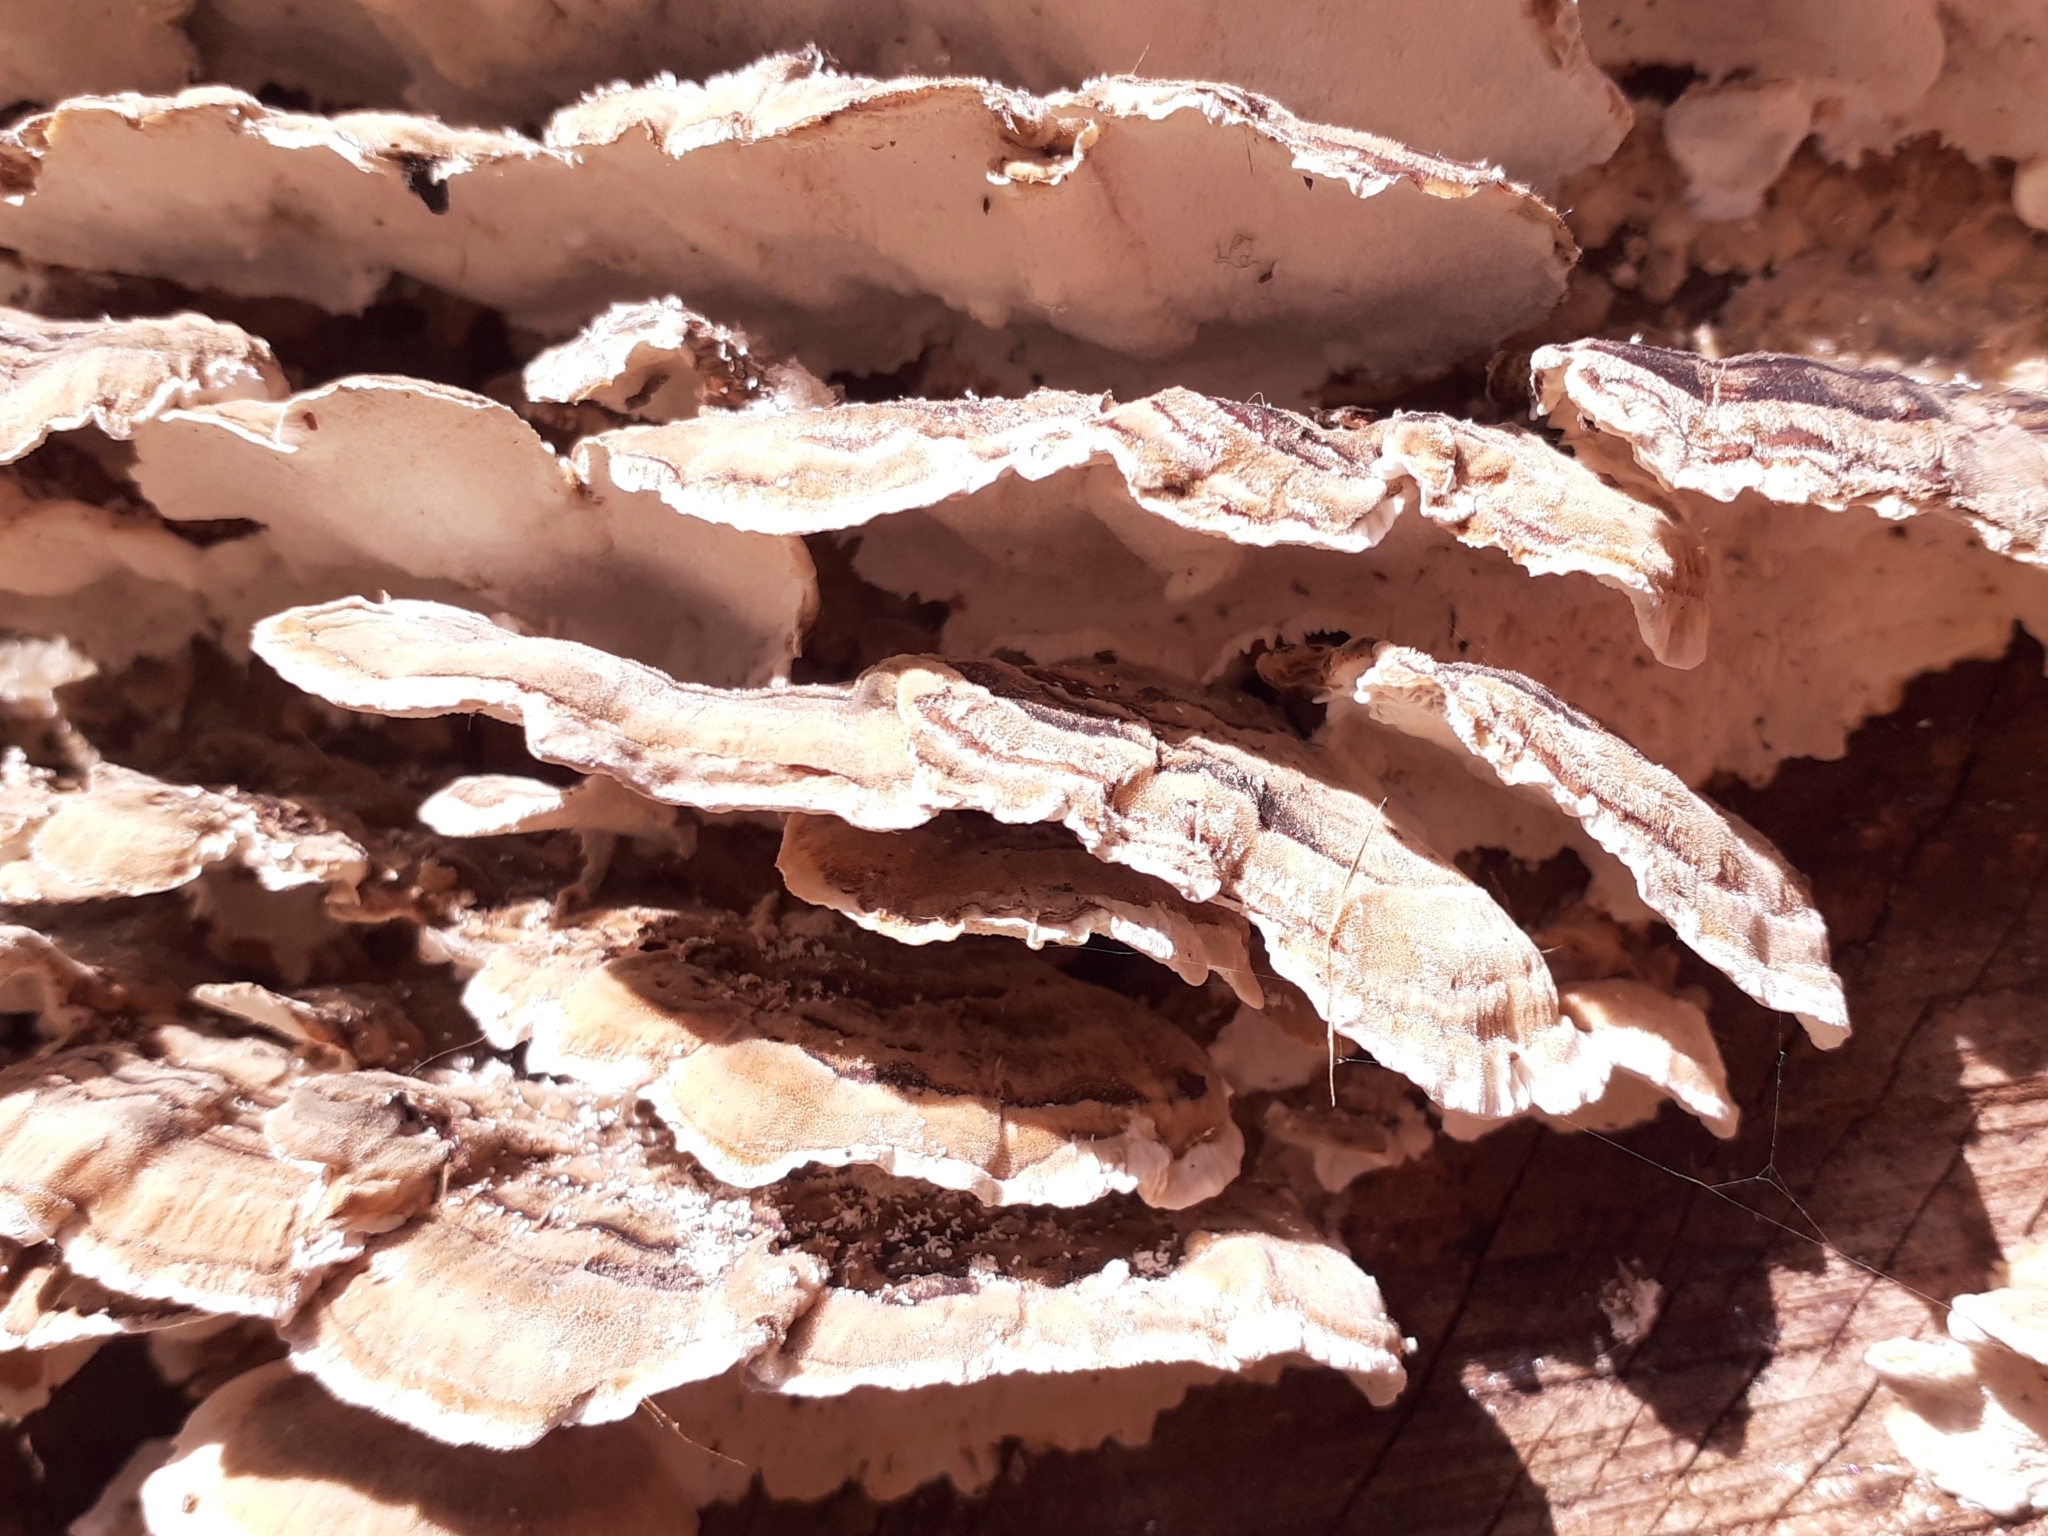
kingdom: Fungi
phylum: Basidiomycota
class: Agaricomycetes
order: Polyporales
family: Polyporaceae
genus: Trametes
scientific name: Trametes versicolor
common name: Turkeytail
